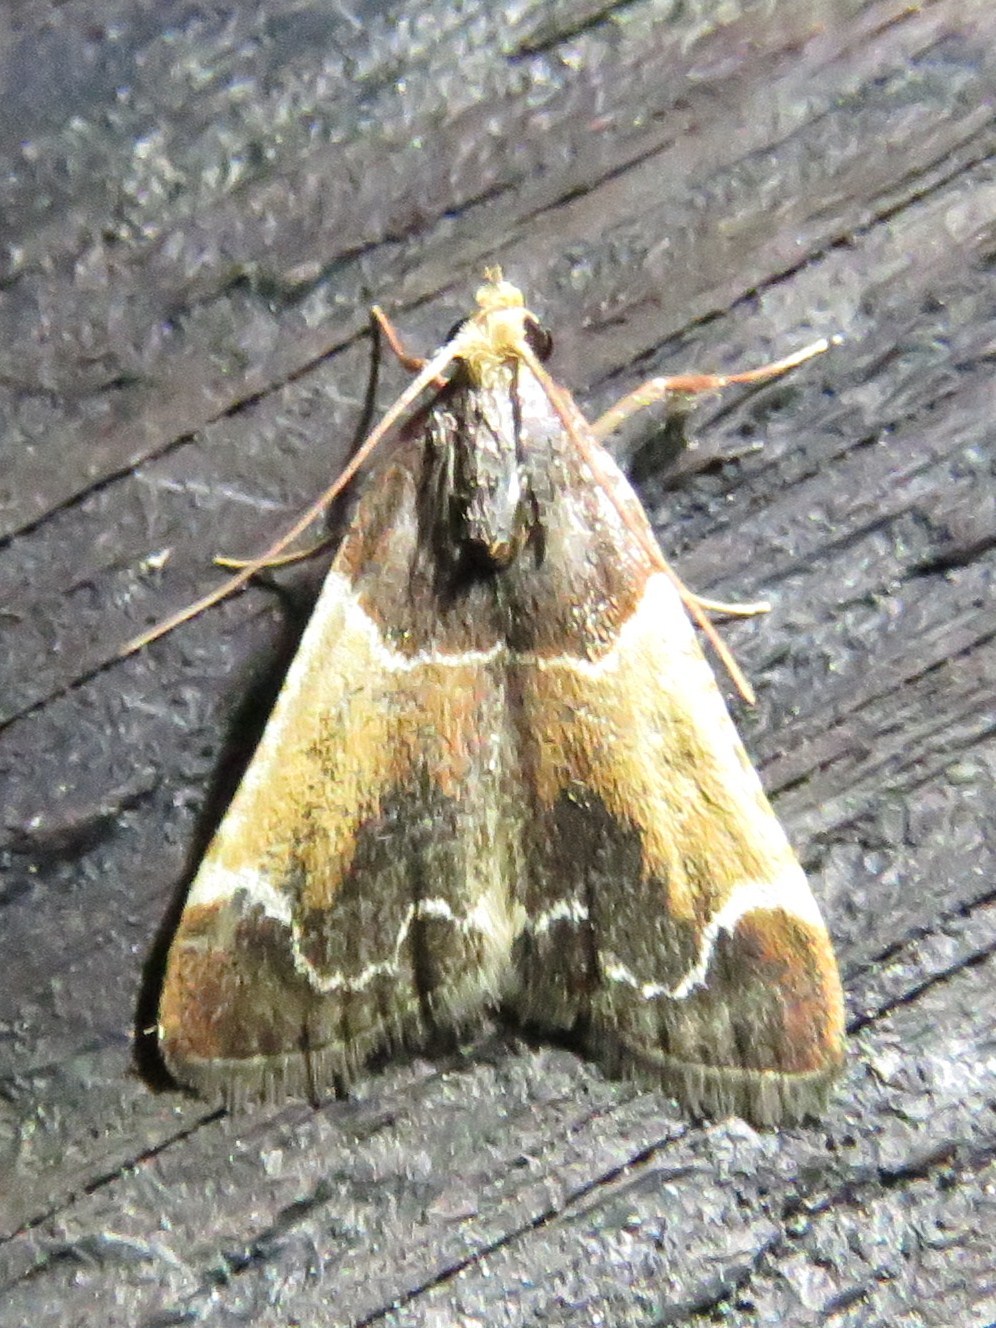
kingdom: Animalia
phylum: Arthropoda
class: Insecta
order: Lepidoptera
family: Pyralidae
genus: Pyralis
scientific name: Pyralis farinalis
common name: Meal moth
